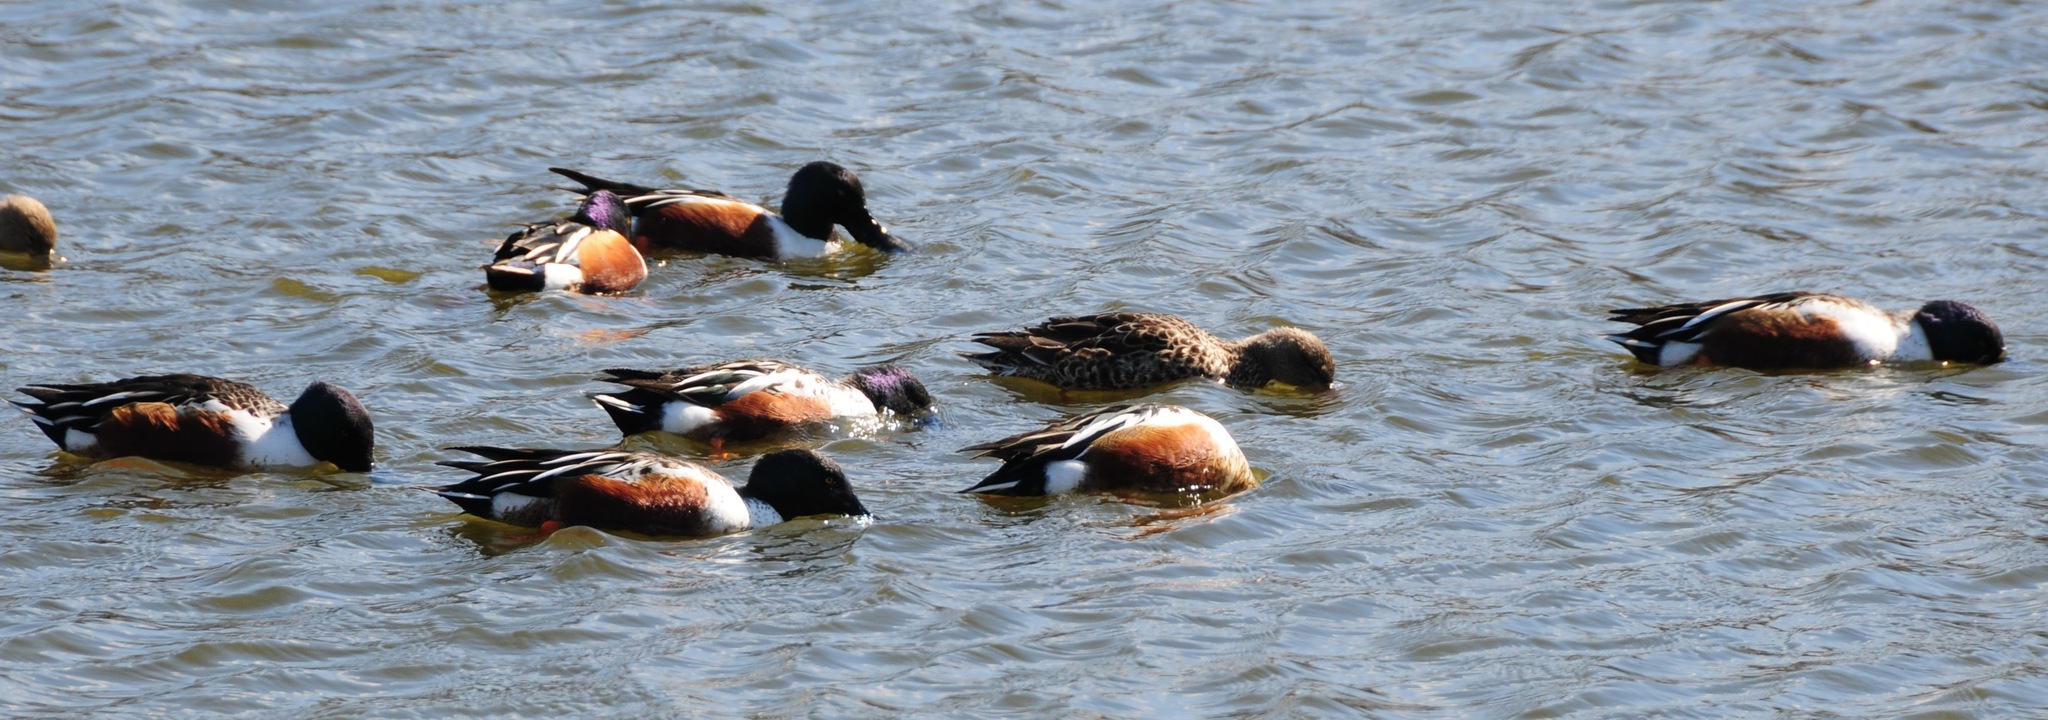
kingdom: Animalia
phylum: Chordata
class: Aves
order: Anseriformes
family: Anatidae
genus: Spatula
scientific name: Spatula clypeata
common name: Northern shoveler
